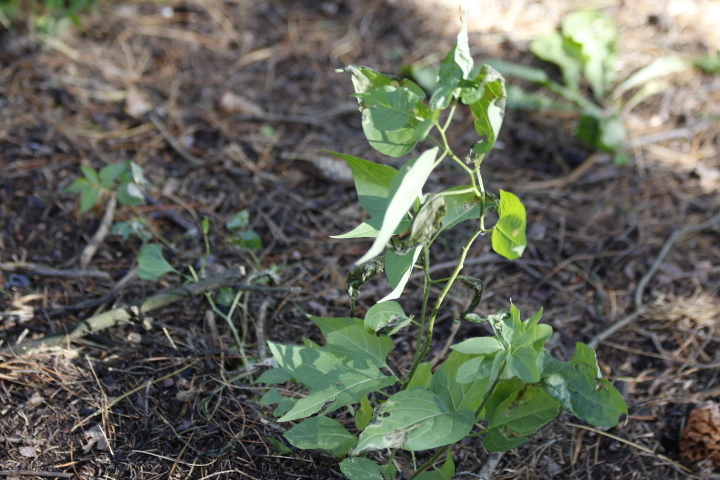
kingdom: Plantae
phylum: Tracheophyta
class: Magnoliopsida
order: Solanales
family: Solanaceae
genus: Solanum
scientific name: Solanum dulcamara
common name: Climbing nightshade
